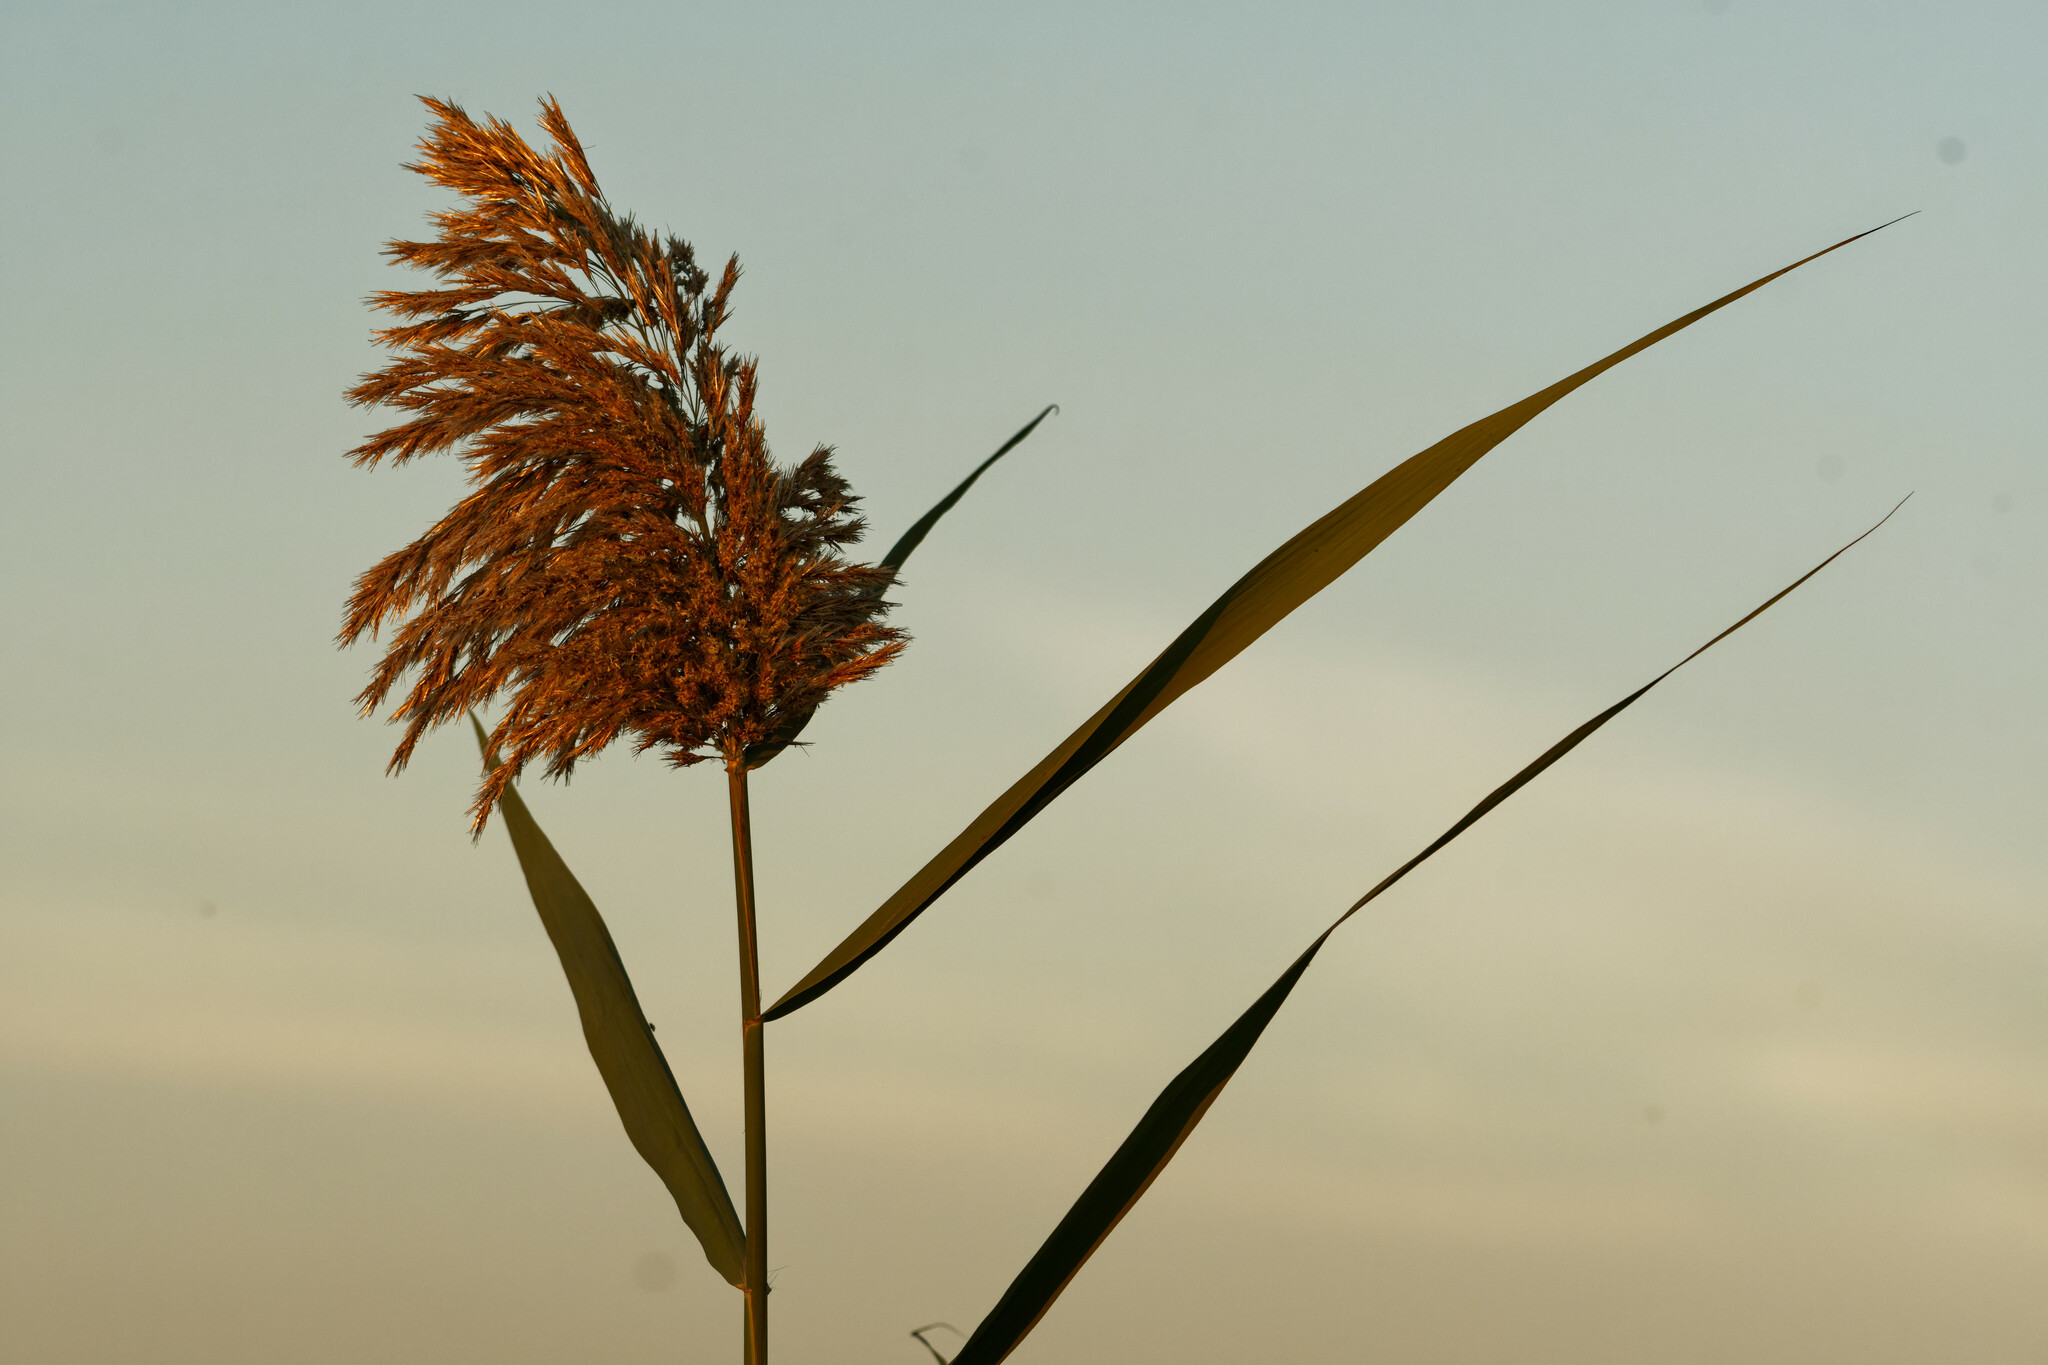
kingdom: Plantae
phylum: Tracheophyta
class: Liliopsida
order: Poales
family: Poaceae
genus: Phragmites
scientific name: Phragmites australis
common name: Common reed
